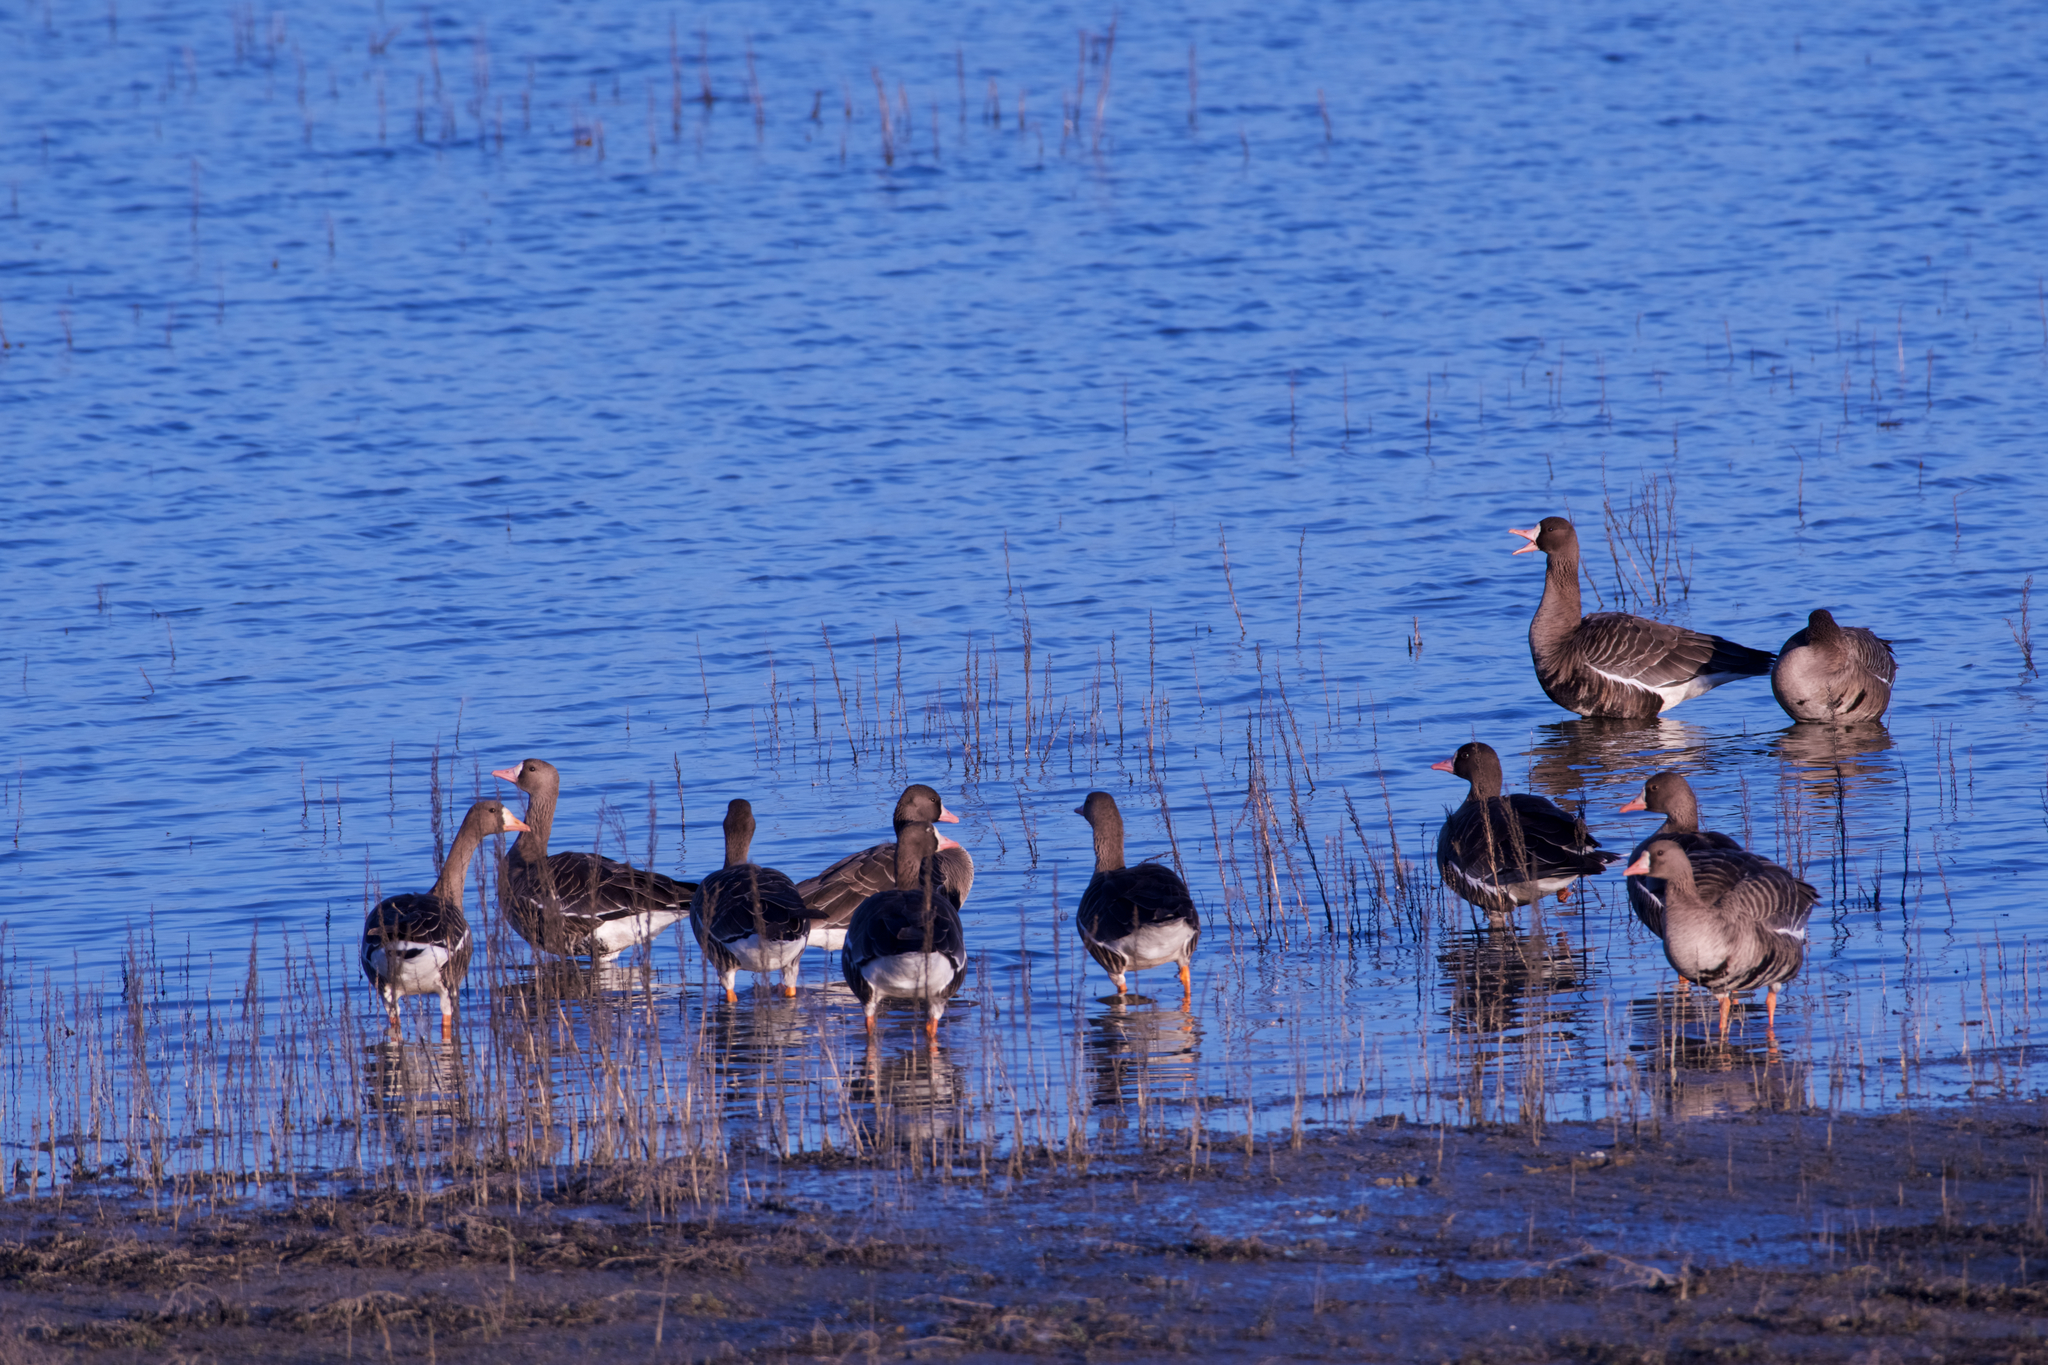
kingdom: Animalia
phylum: Chordata
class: Aves
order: Anseriformes
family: Anatidae
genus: Anser
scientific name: Anser albifrons
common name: Greater white-fronted goose
